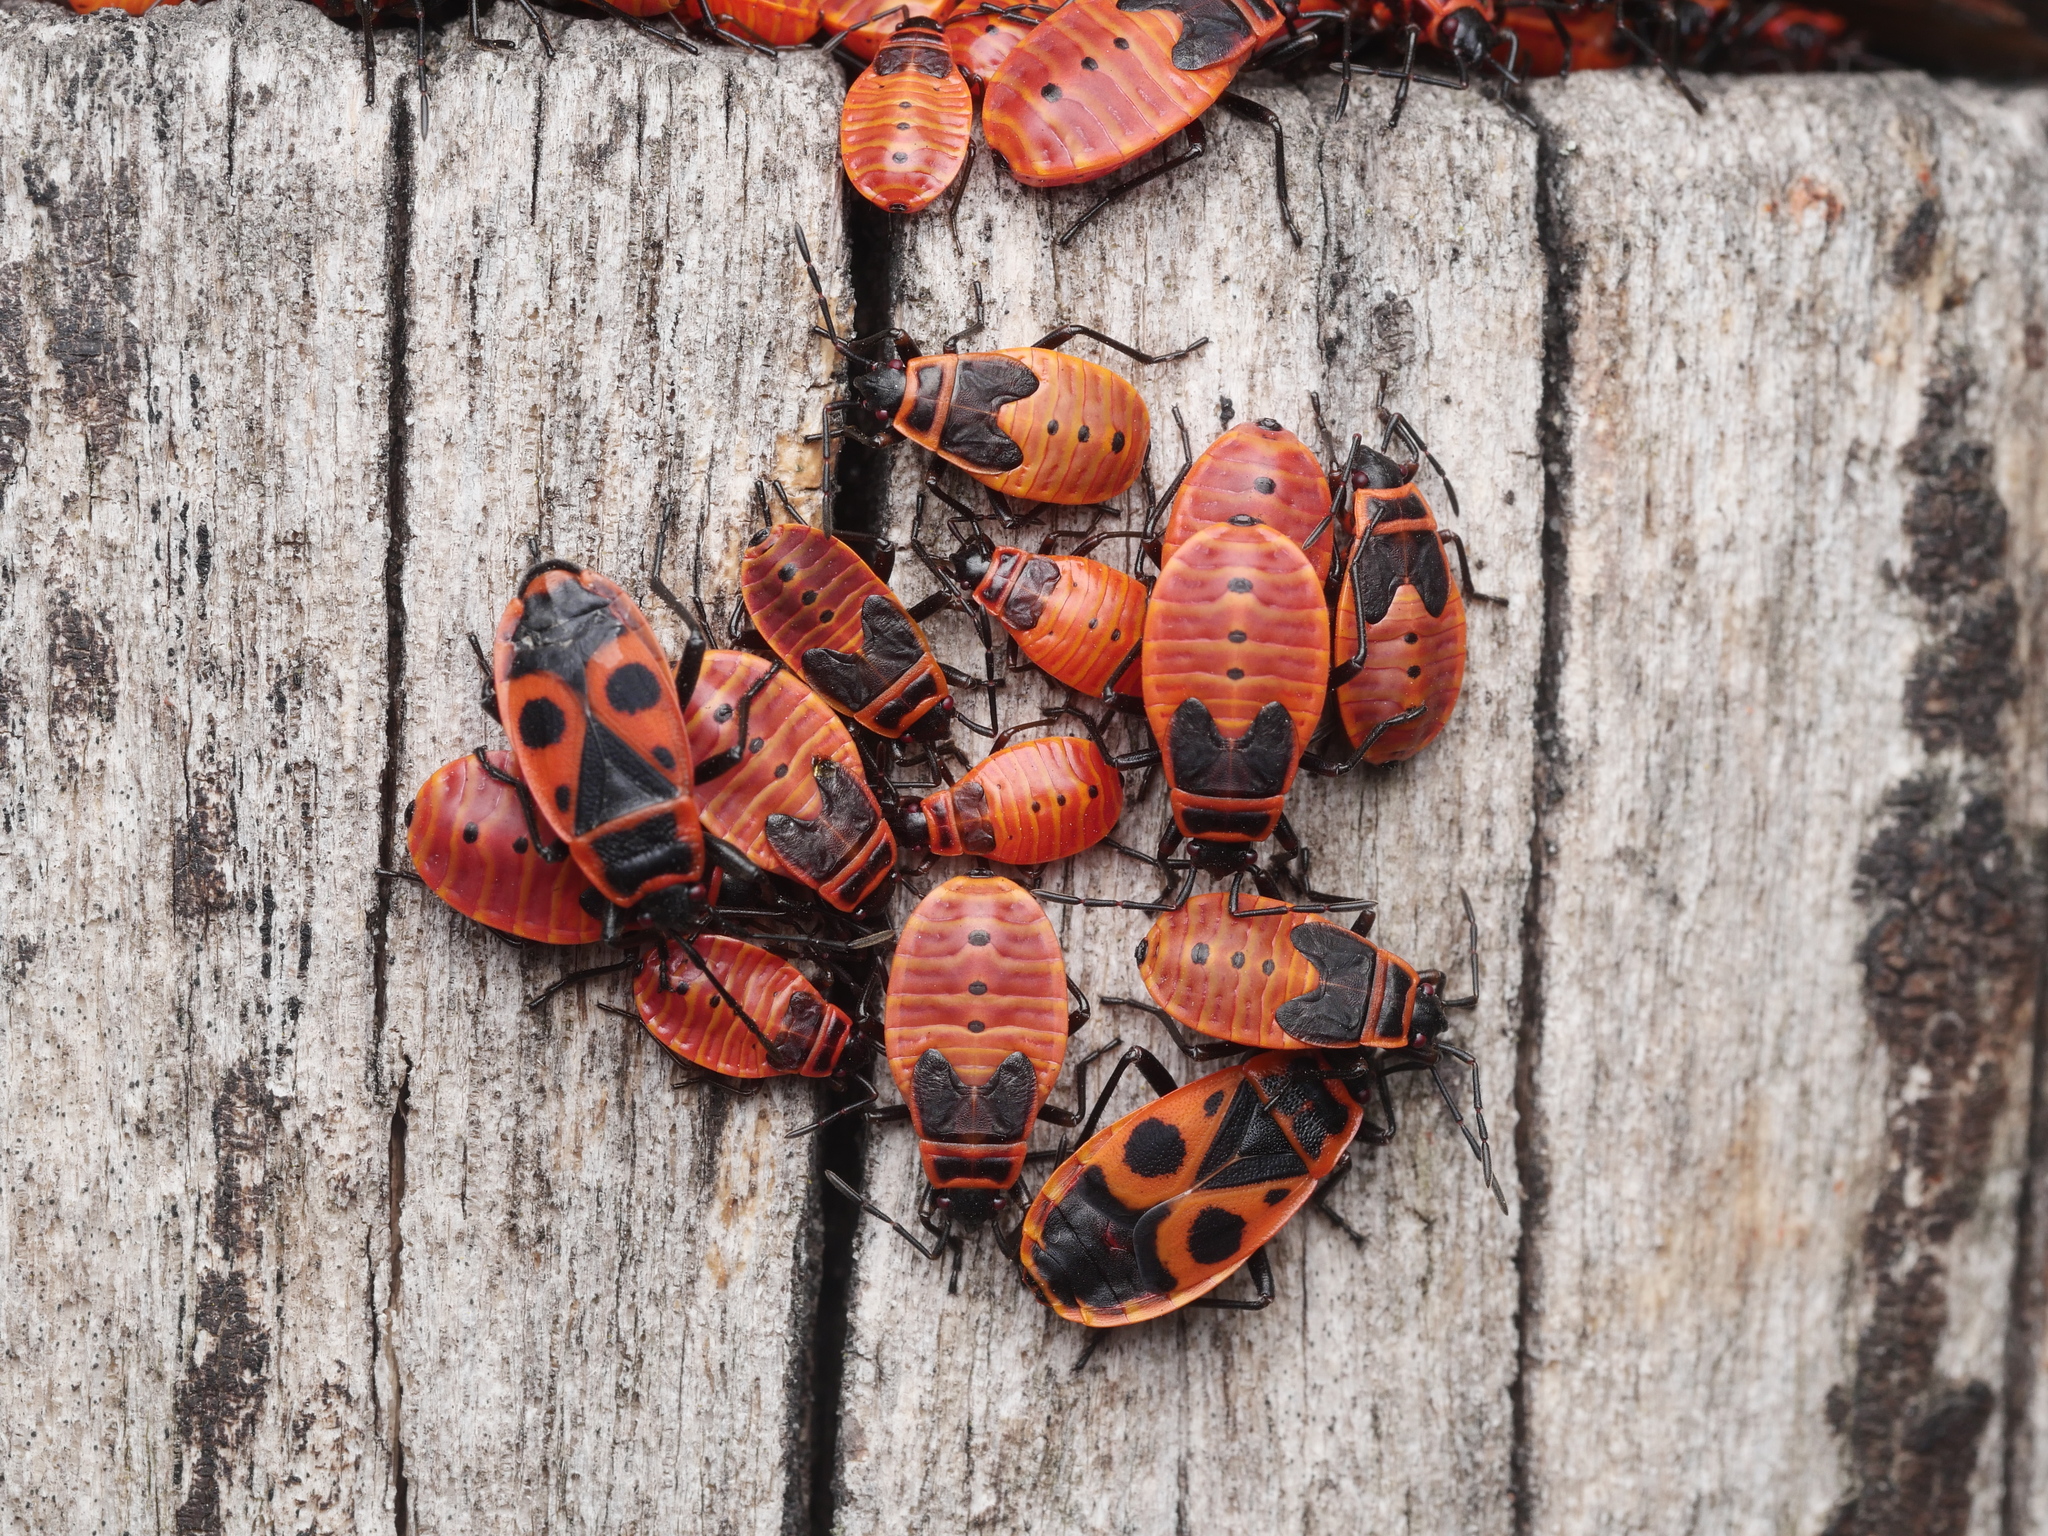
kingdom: Animalia
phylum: Arthropoda
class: Insecta
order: Hemiptera
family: Pyrrhocoridae
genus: Pyrrhocoris
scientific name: Pyrrhocoris apterus
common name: Firebug
